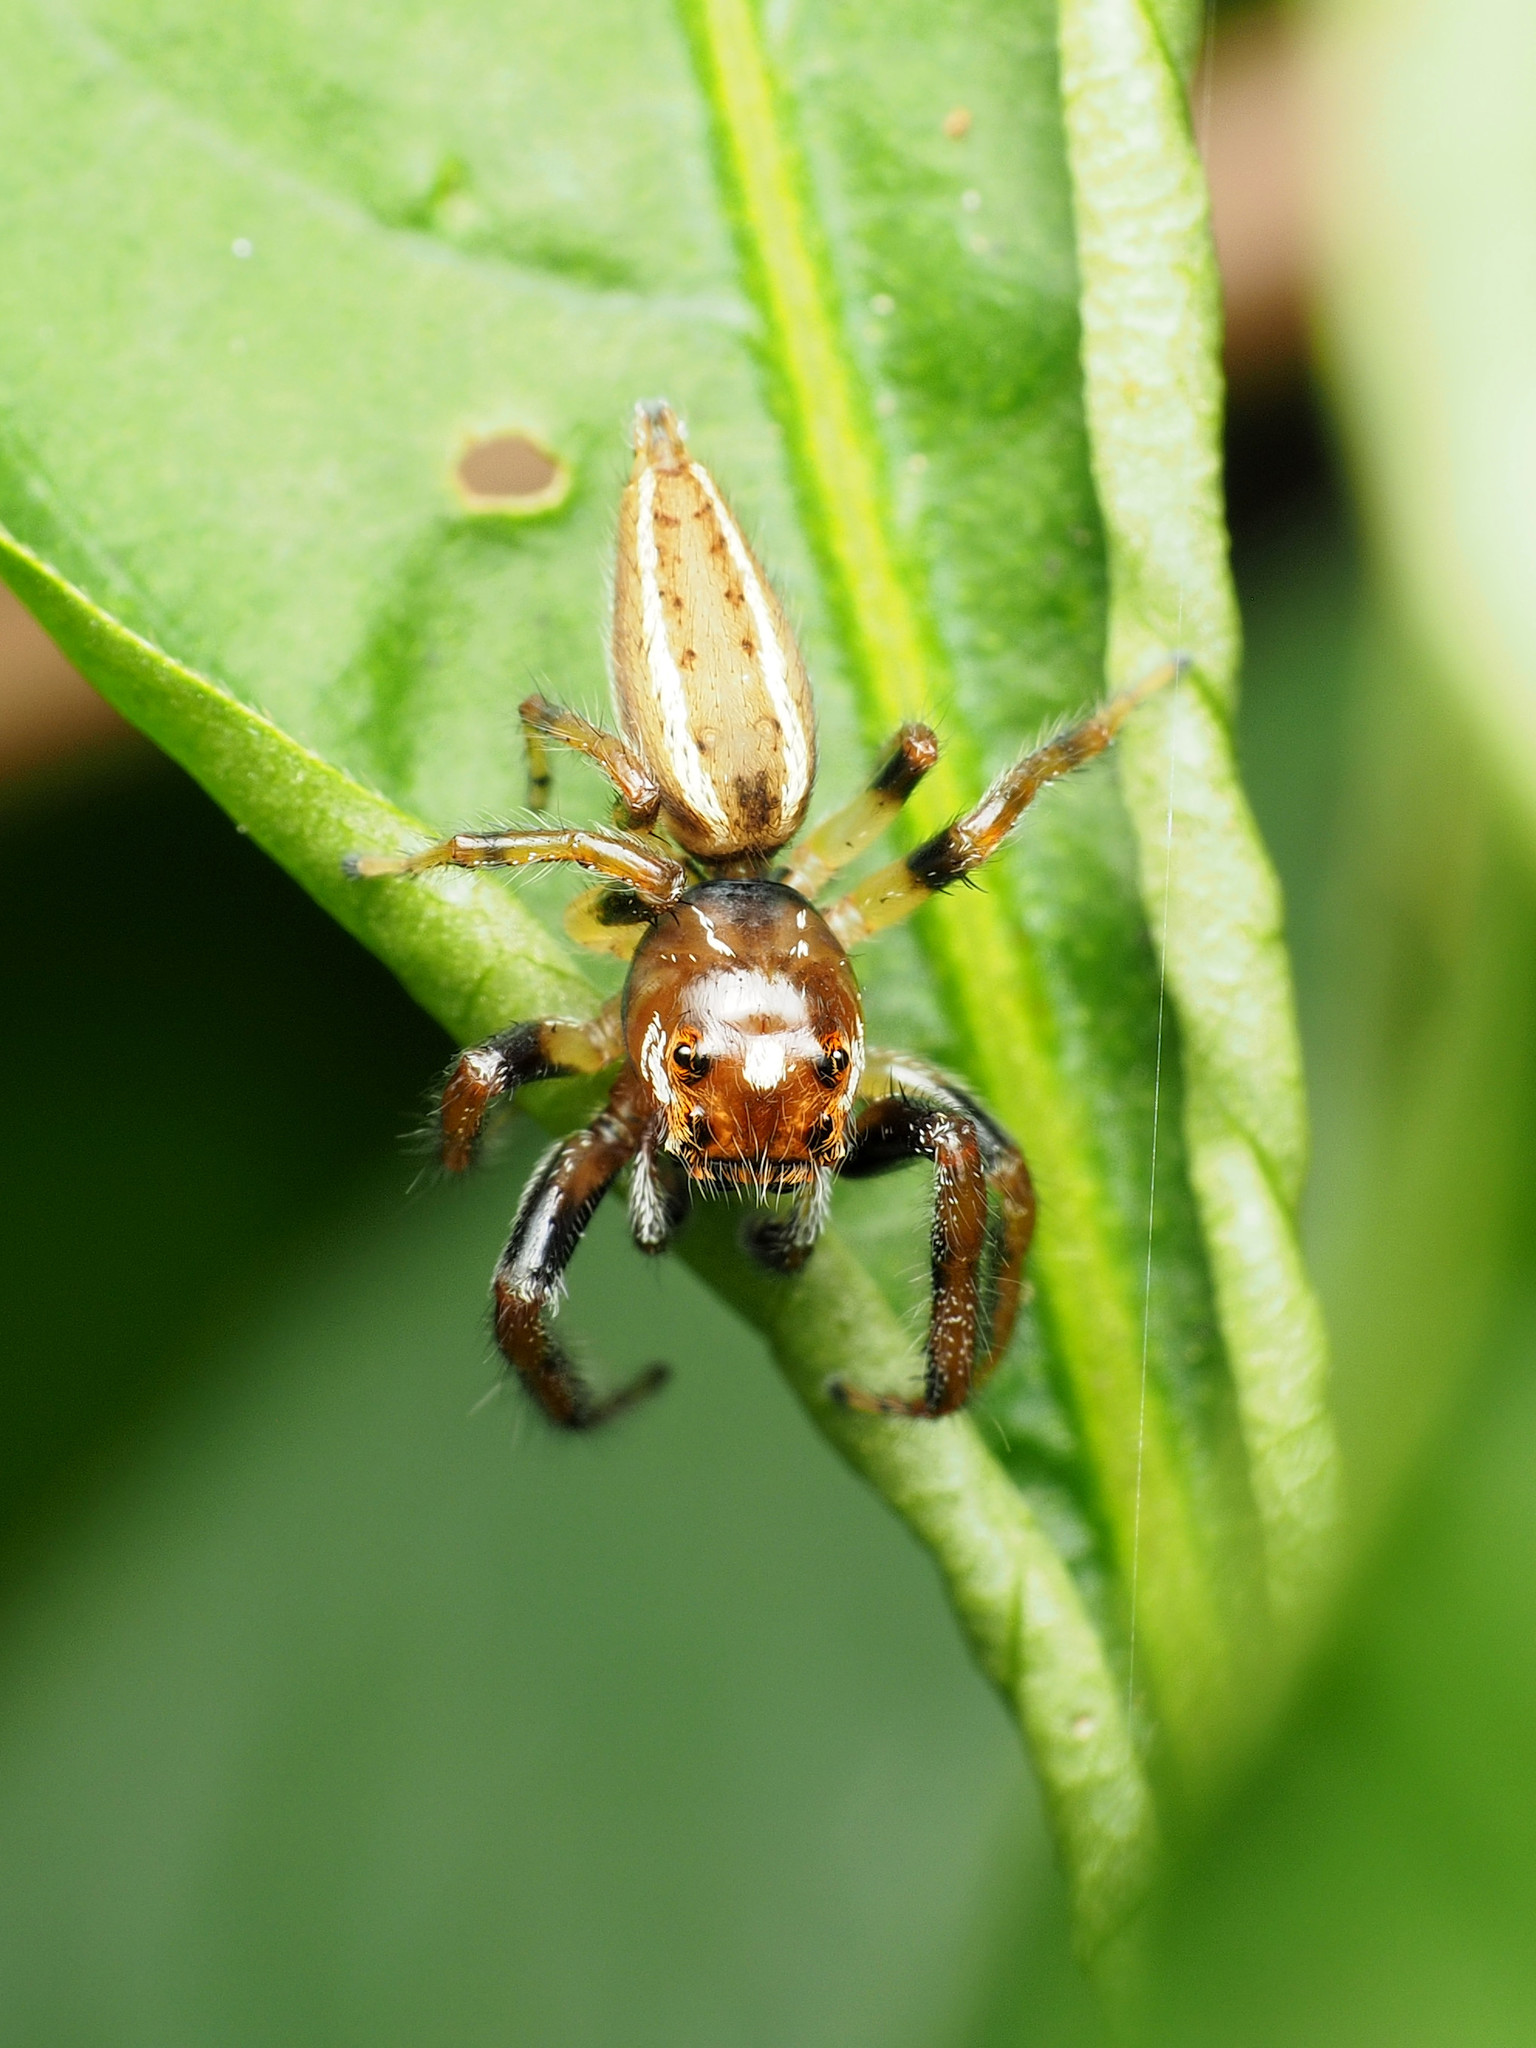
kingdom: Animalia
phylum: Arthropoda
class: Arachnida
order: Araneae
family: Salticidae
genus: Colonus
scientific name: Colonus sylvanus
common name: Jumping spiders
